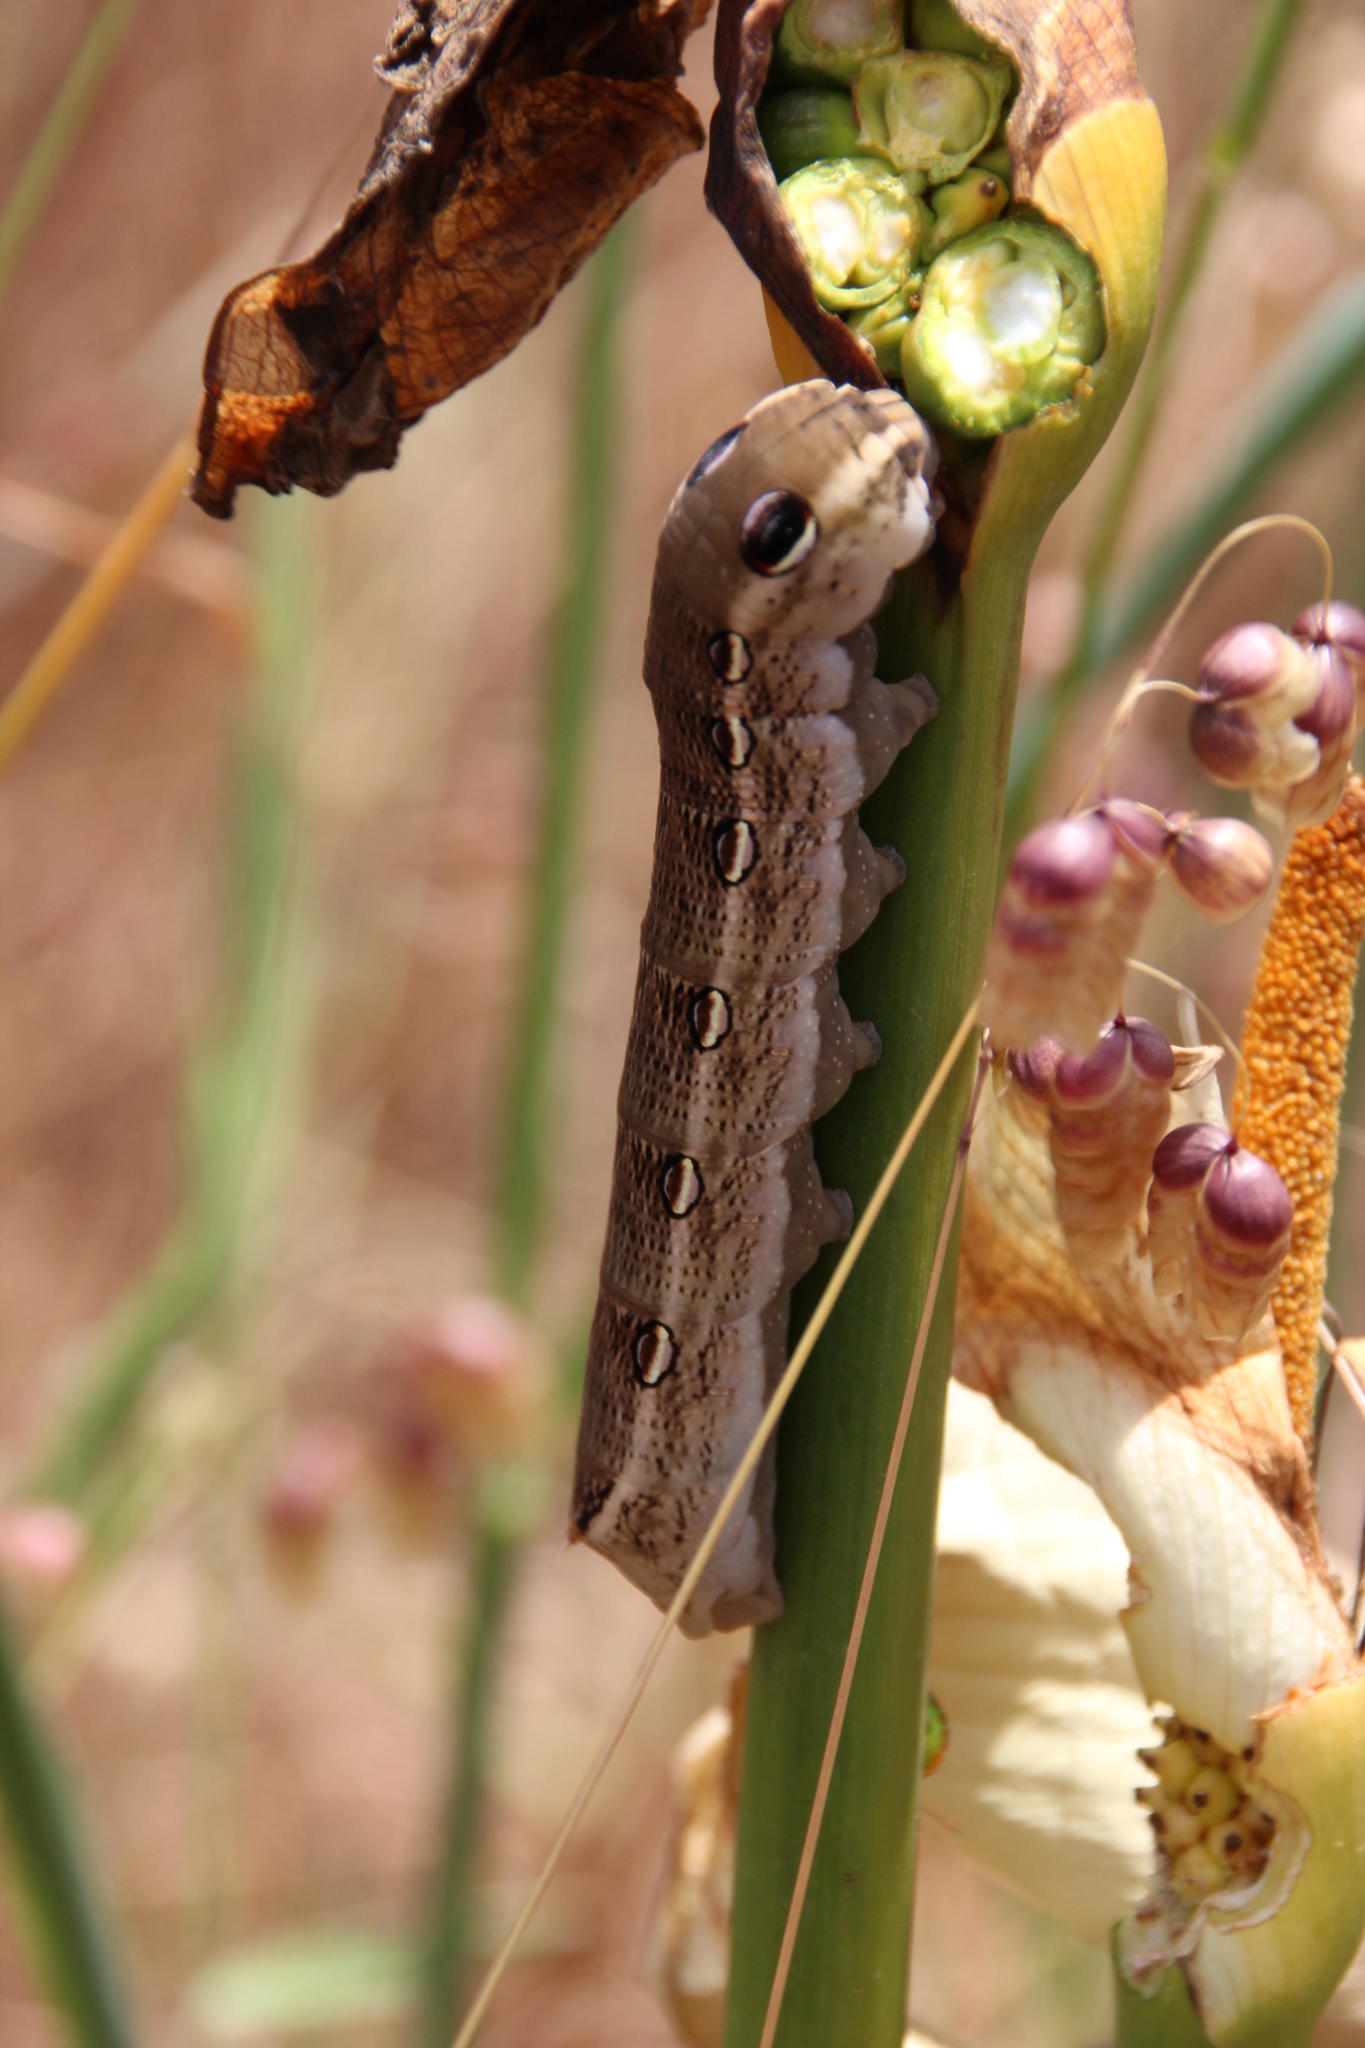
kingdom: Animalia
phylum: Arthropoda
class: Insecta
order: Lepidoptera
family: Sphingidae
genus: Theretra
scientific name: Theretra cajus
